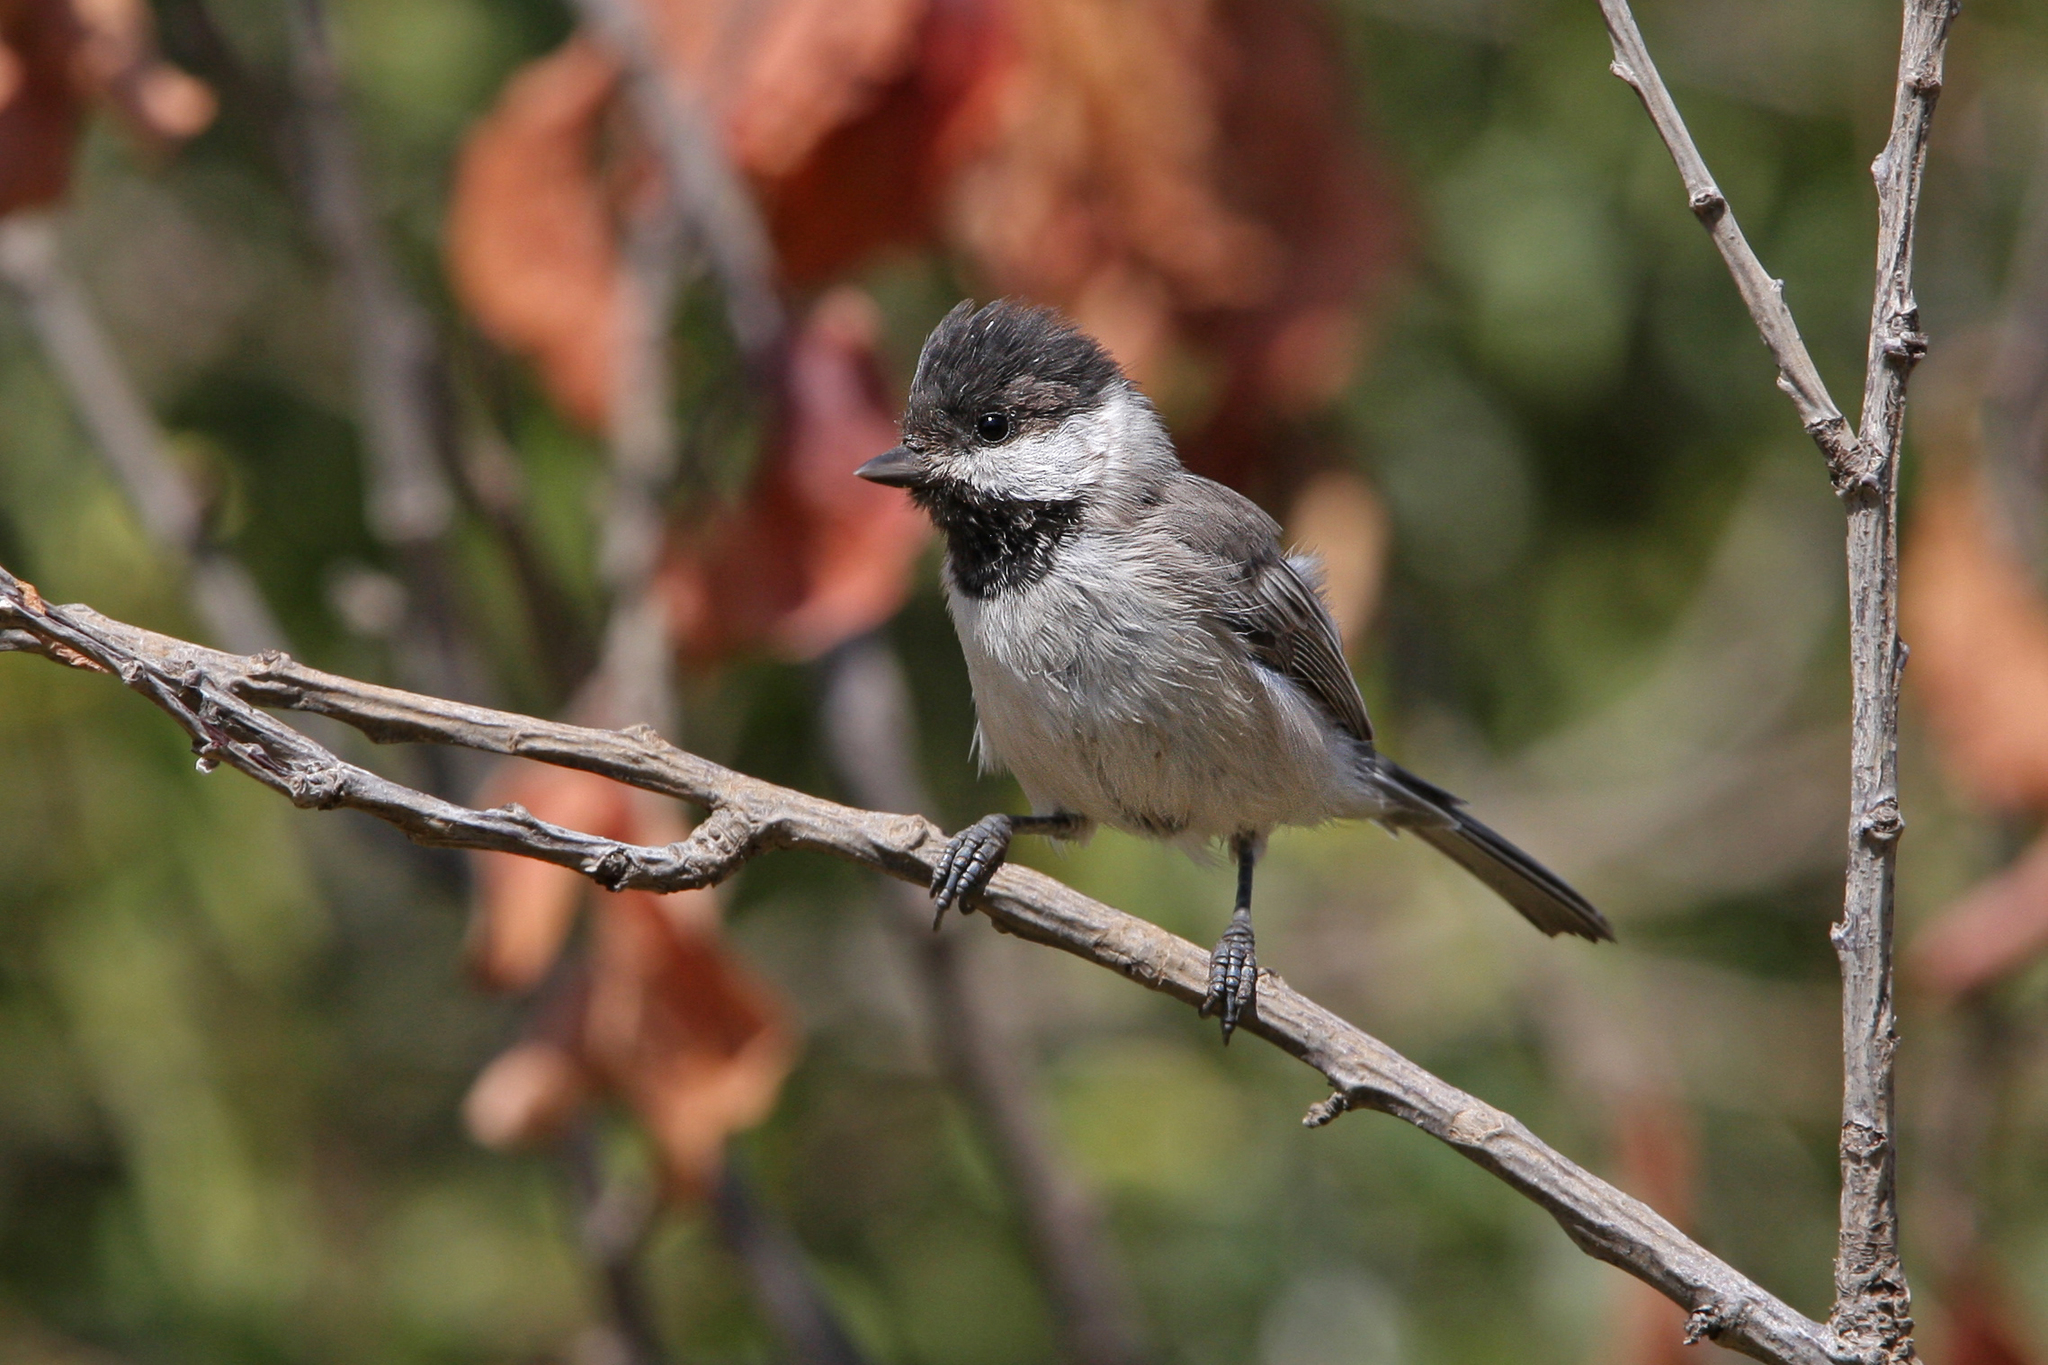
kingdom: Animalia
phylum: Chordata
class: Aves
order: Passeriformes
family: Paridae
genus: Poecile
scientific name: Poecile lugubris
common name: Sombre tit
